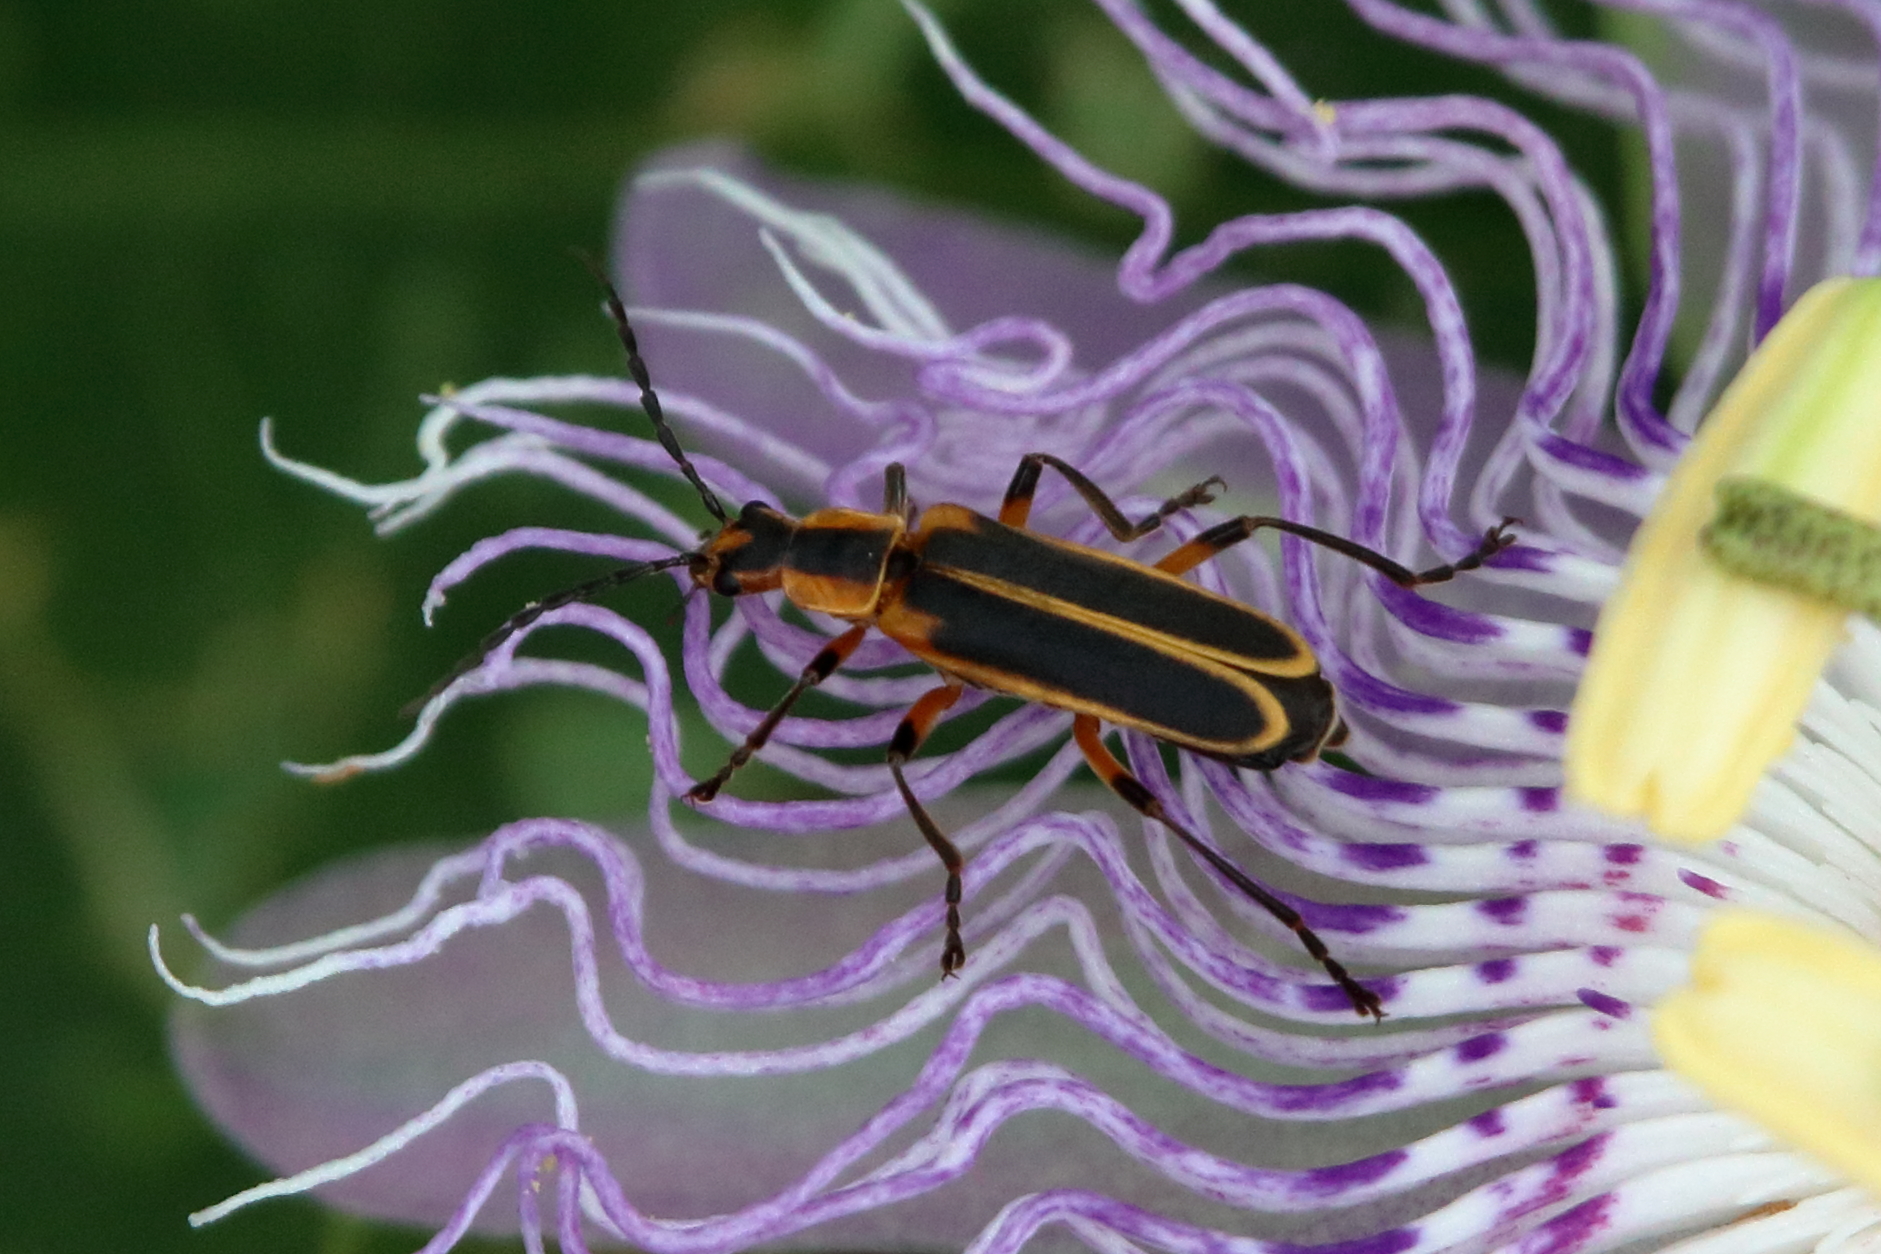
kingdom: Animalia
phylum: Arthropoda
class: Insecta
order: Coleoptera
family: Cantharidae
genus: Chauliognathus
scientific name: Chauliognathus marginatus
